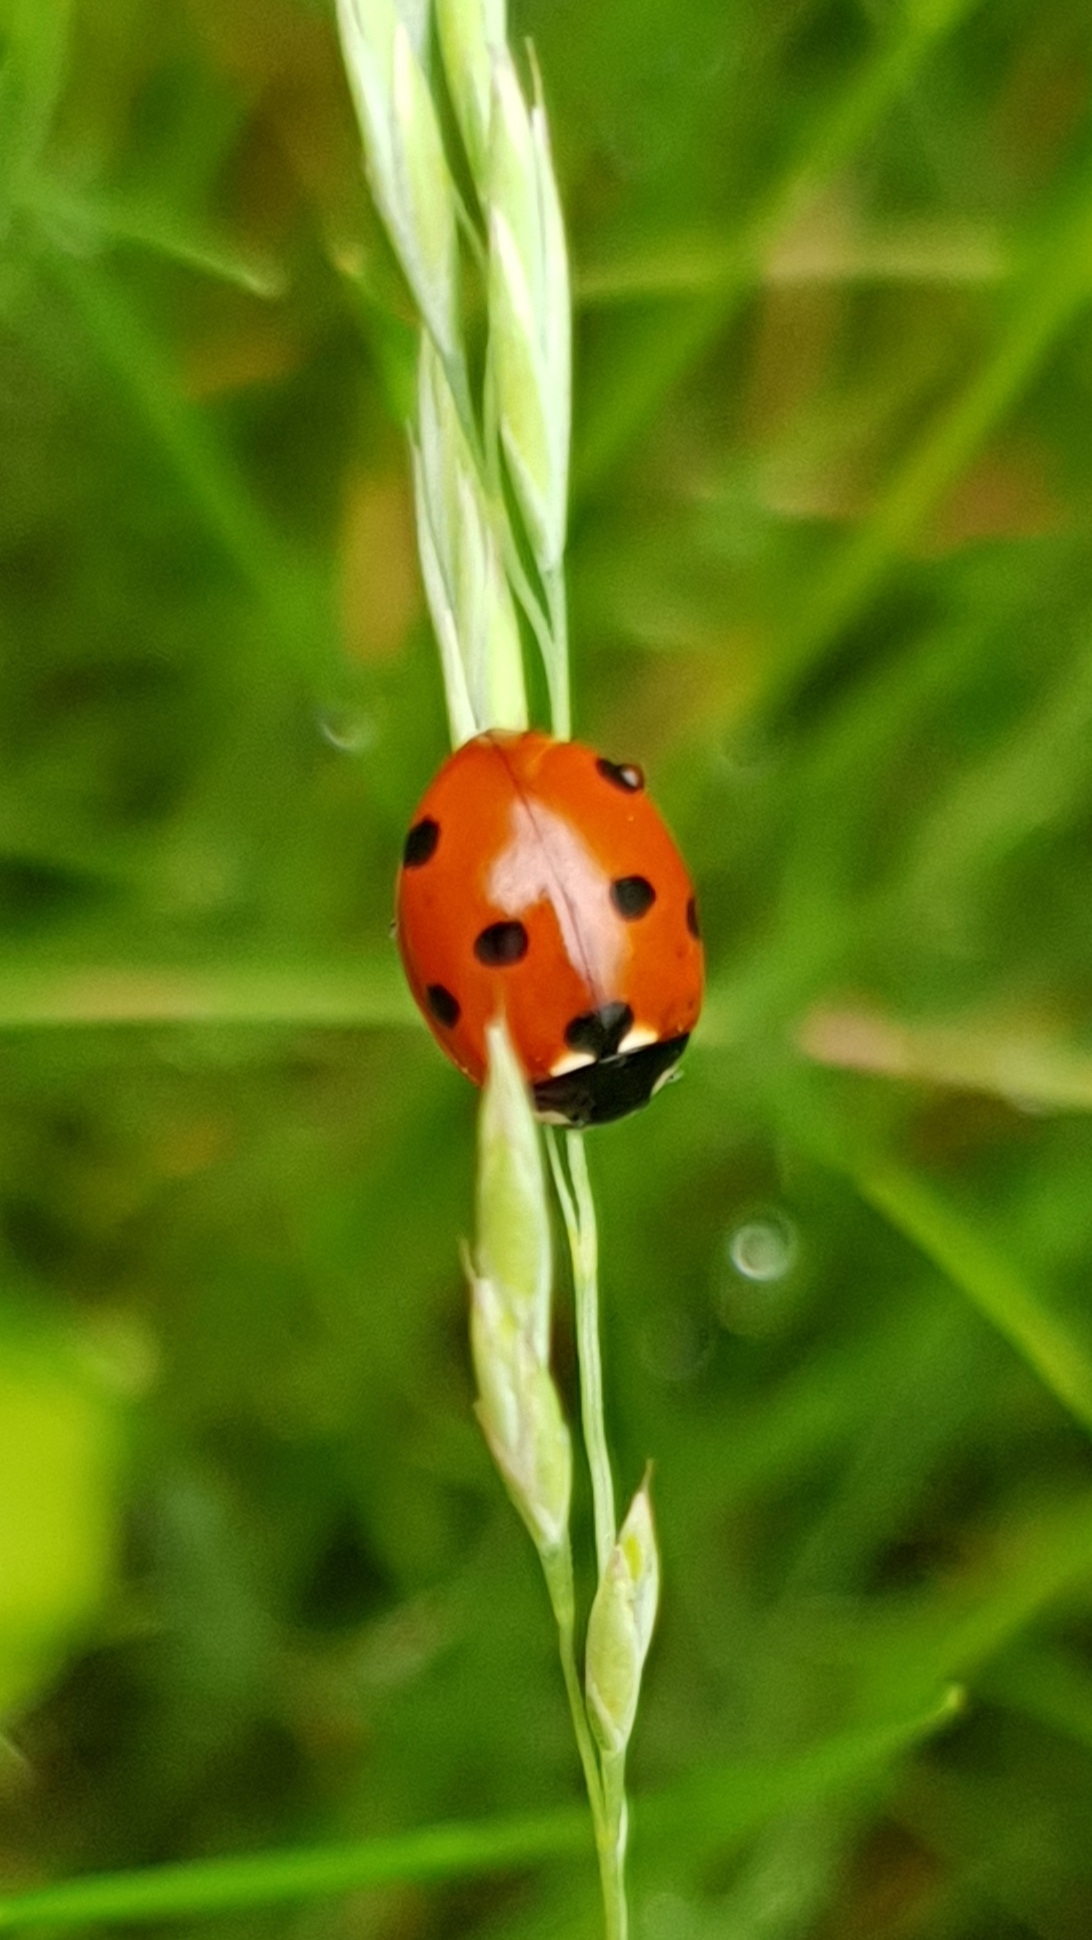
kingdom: Animalia
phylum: Arthropoda
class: Insecta
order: Coleoptera
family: Coccinellidae
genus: Coccinella
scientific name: Coccinella septempunctata
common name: Sevenspotted lady beetle
